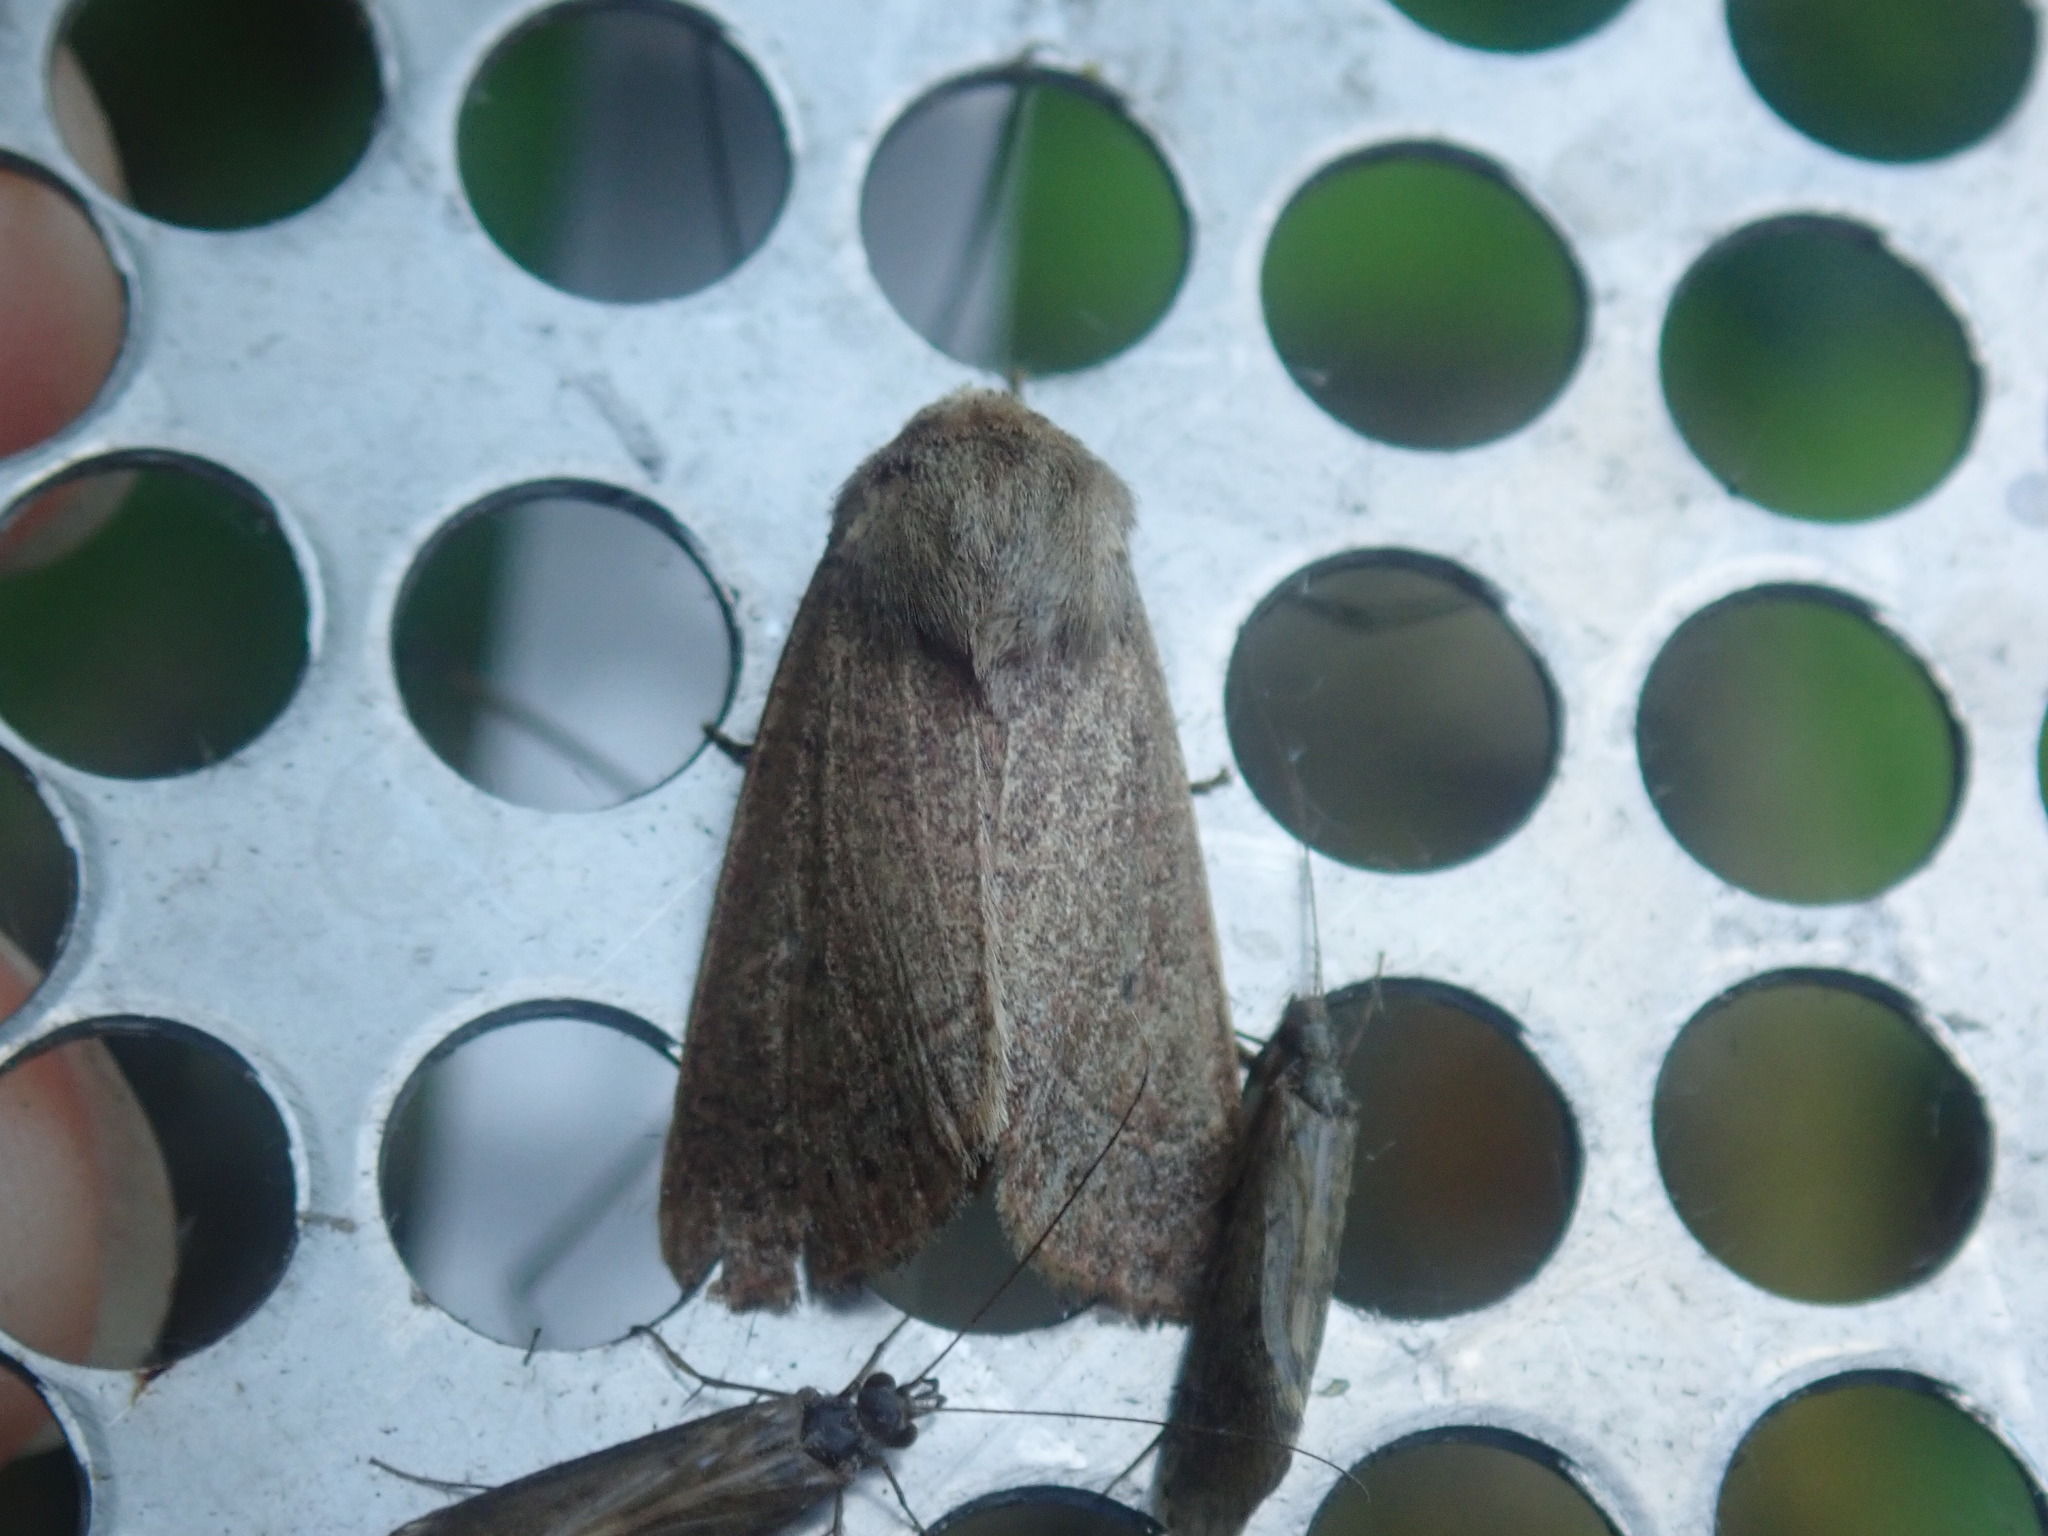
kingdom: Animalia
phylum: Arthropoda
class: Insecta
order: Lepidoptera
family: Noctuidae
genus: Ulolonche
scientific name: Ulolonche culea
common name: Sheathed quaker
